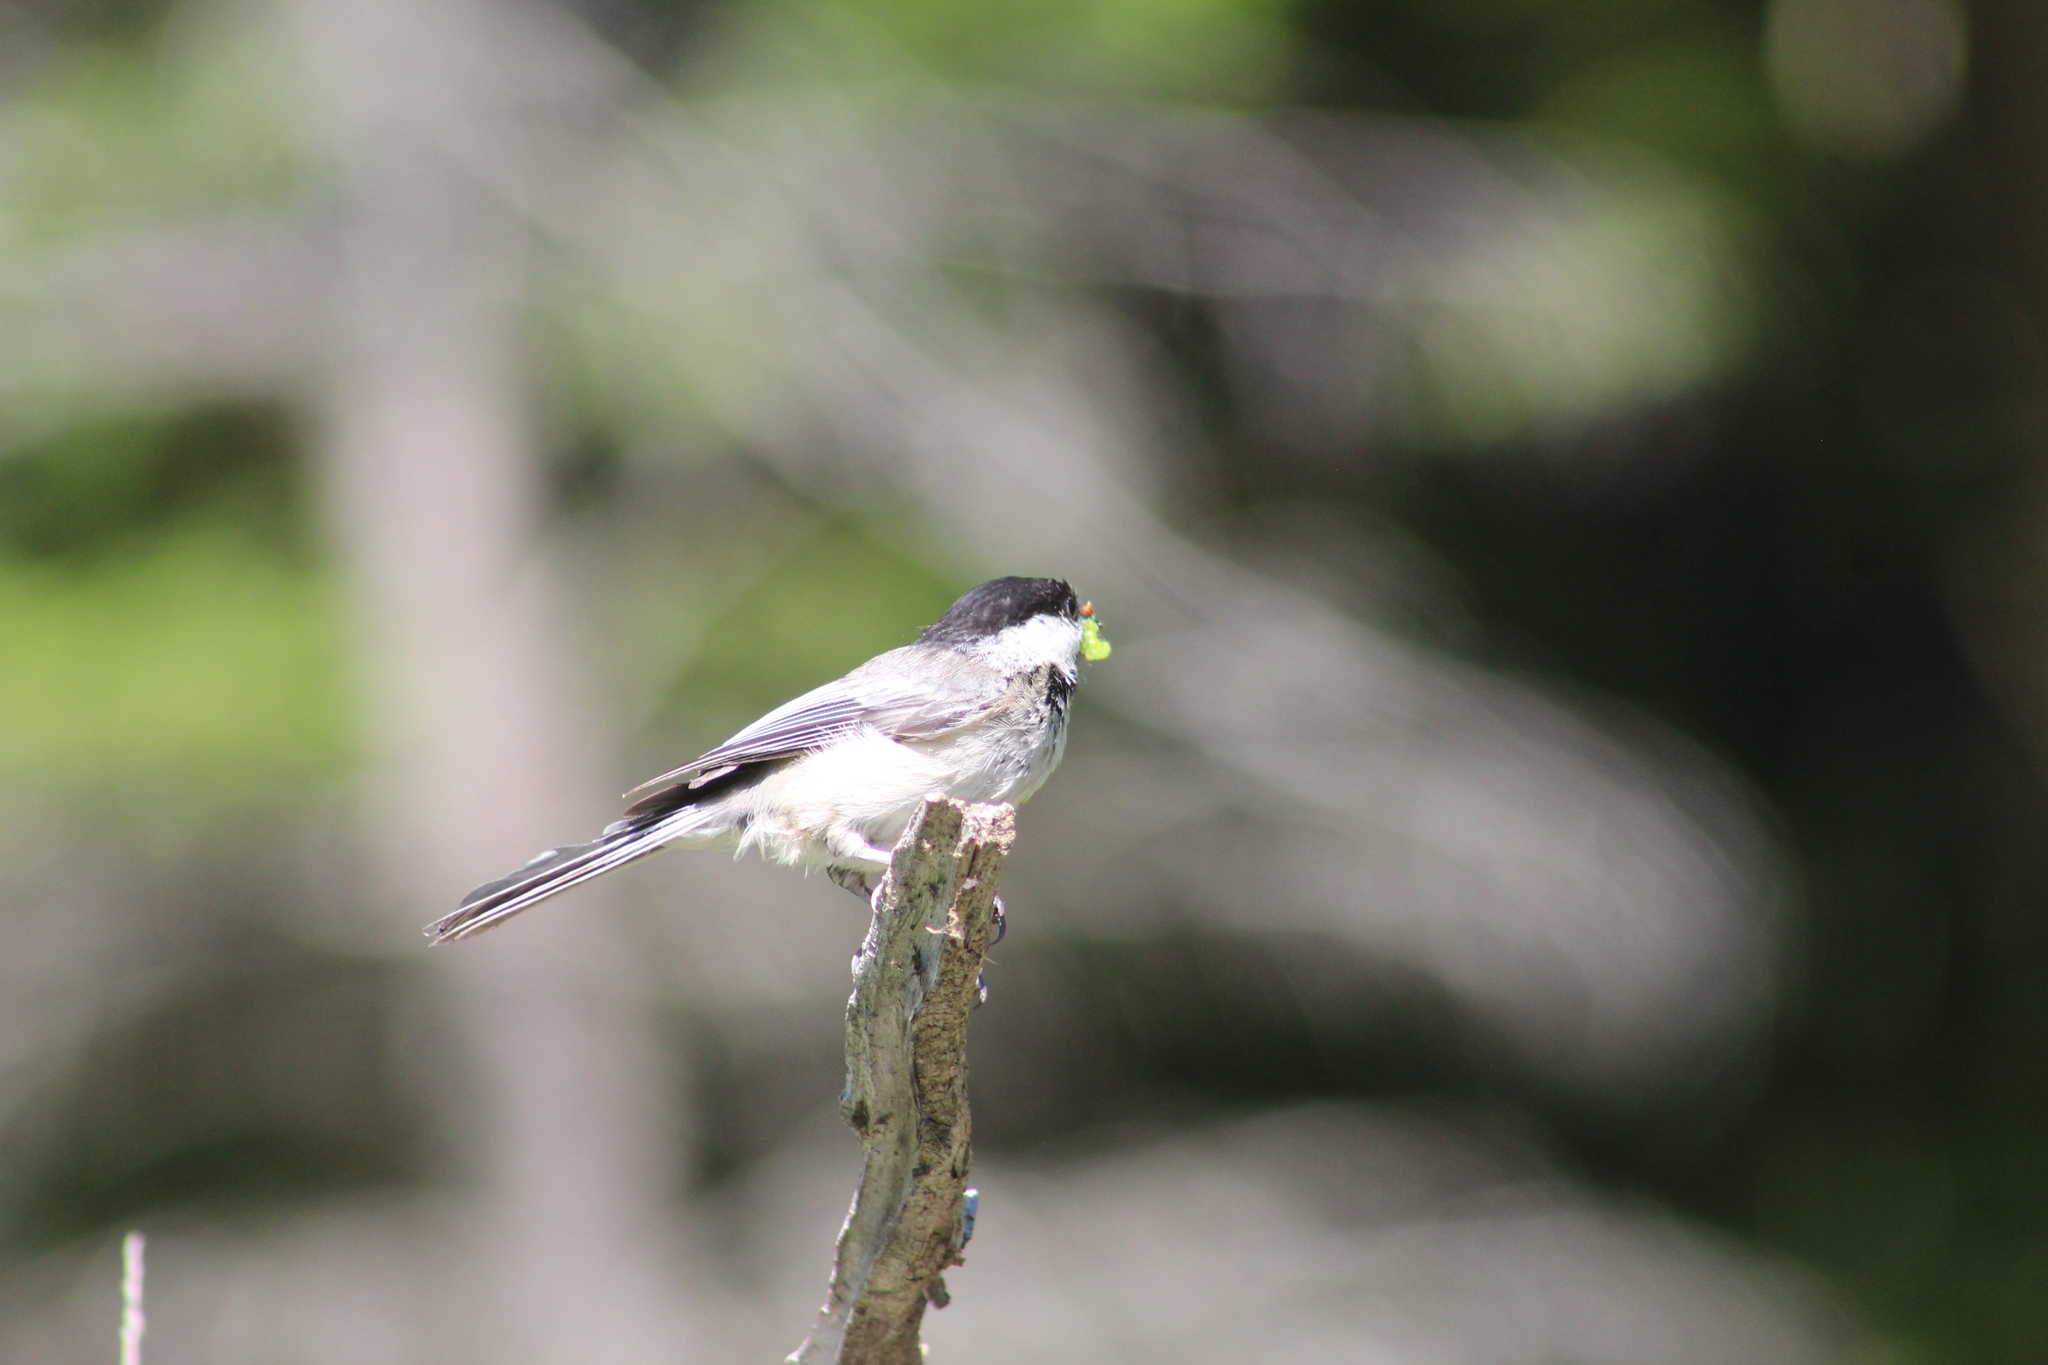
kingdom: Animalia
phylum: Chordata
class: Aves
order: Passeriformes
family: Paridae
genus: Poecile
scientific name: Poecile atricapillus
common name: Black-capped chickadee
